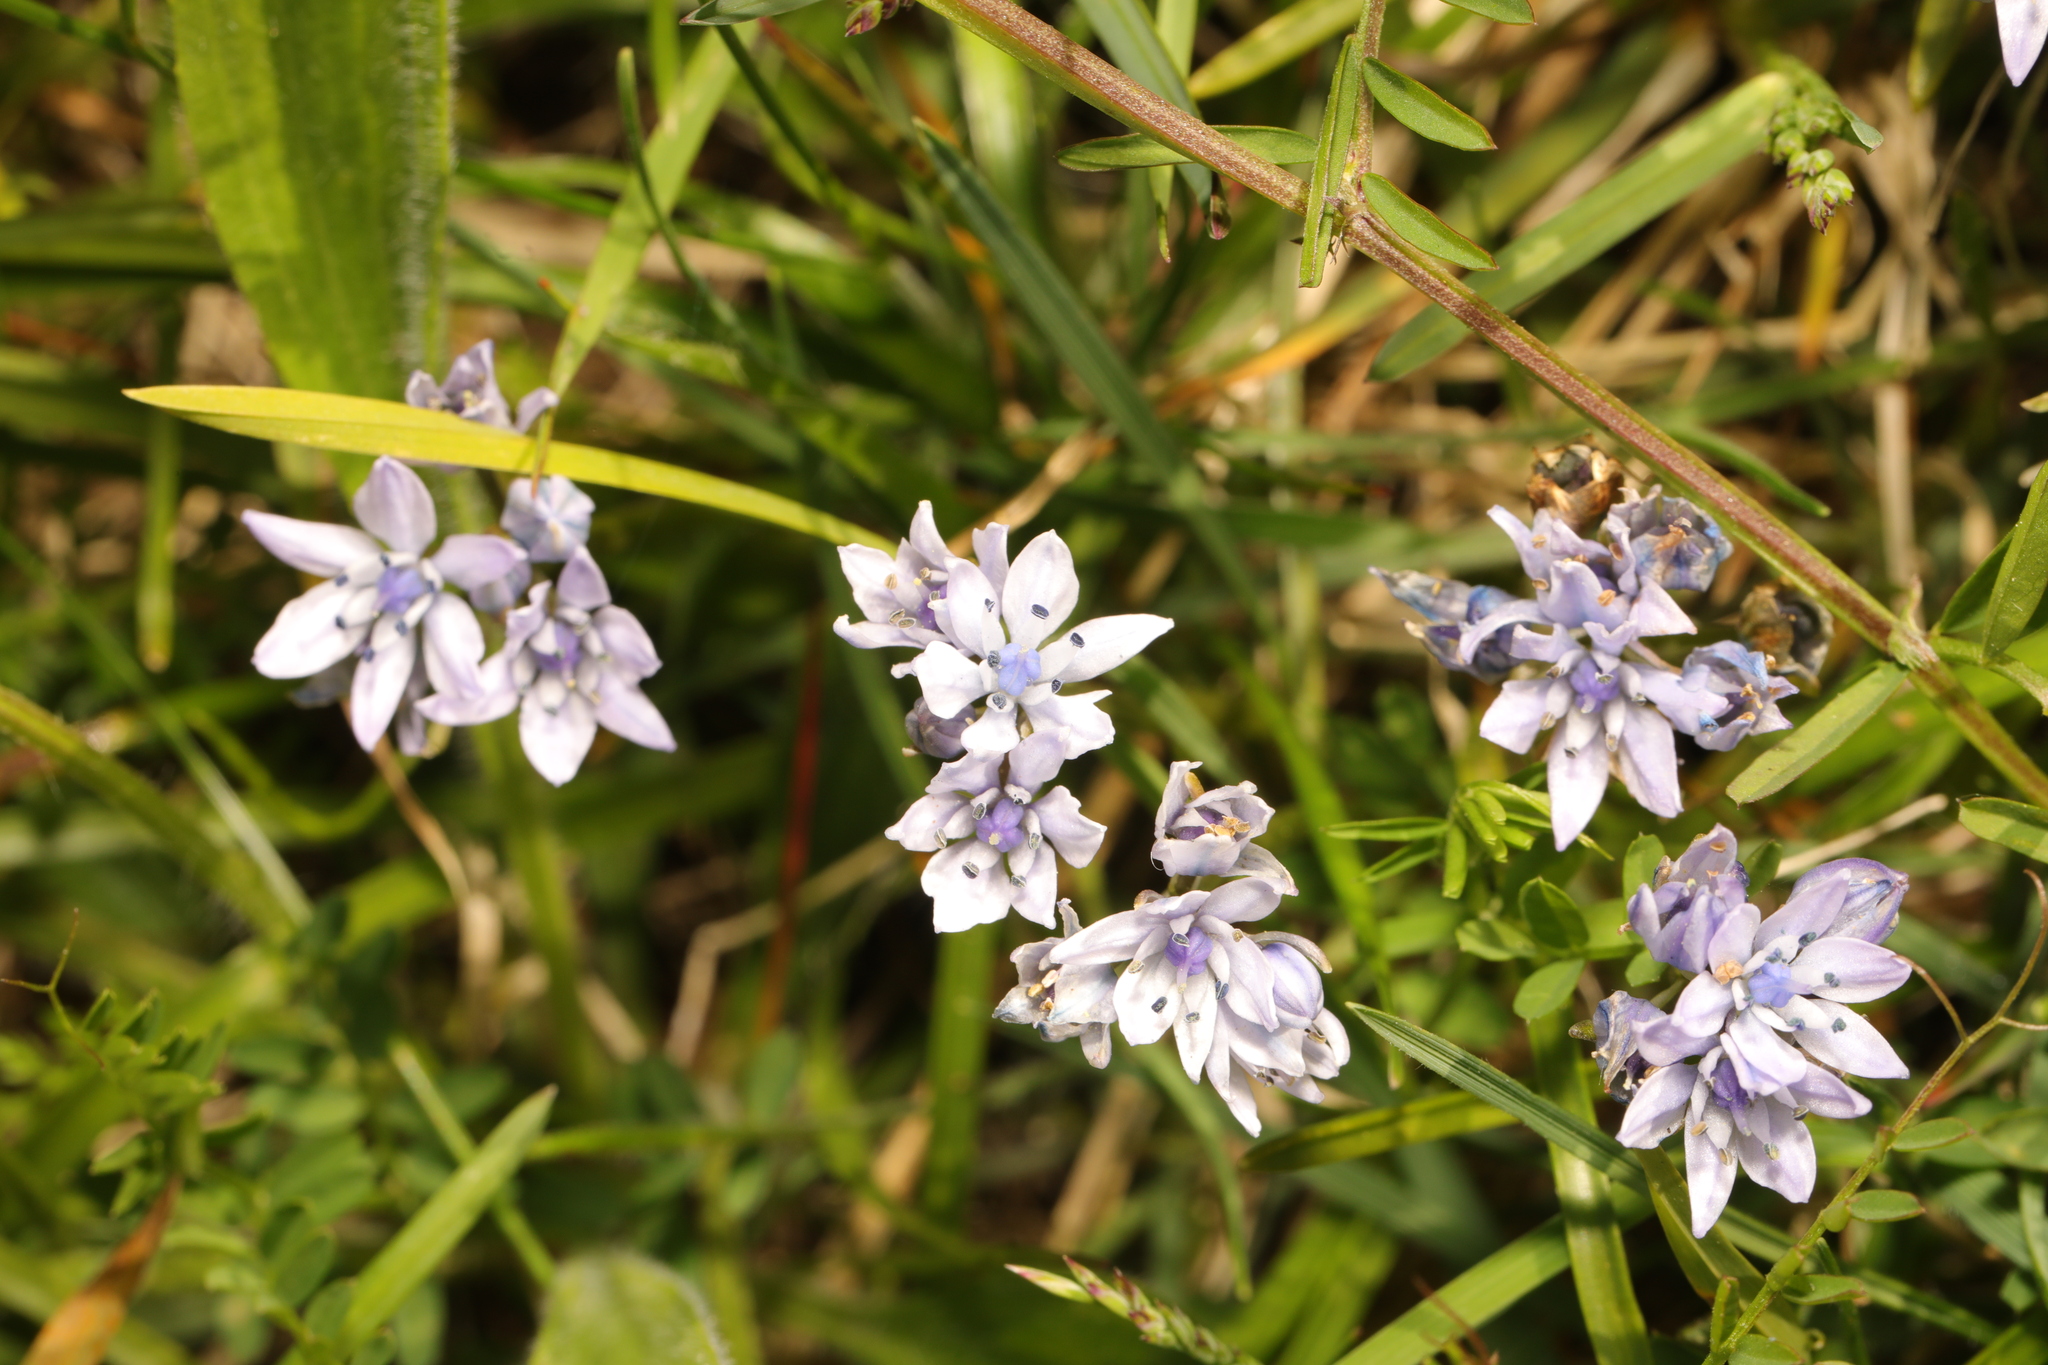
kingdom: Plantae
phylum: Tracheophyta
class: Liliopsida
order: Asparagales
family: Asparagaceae
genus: Scilla
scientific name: Scilla verna
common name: Spring squill
